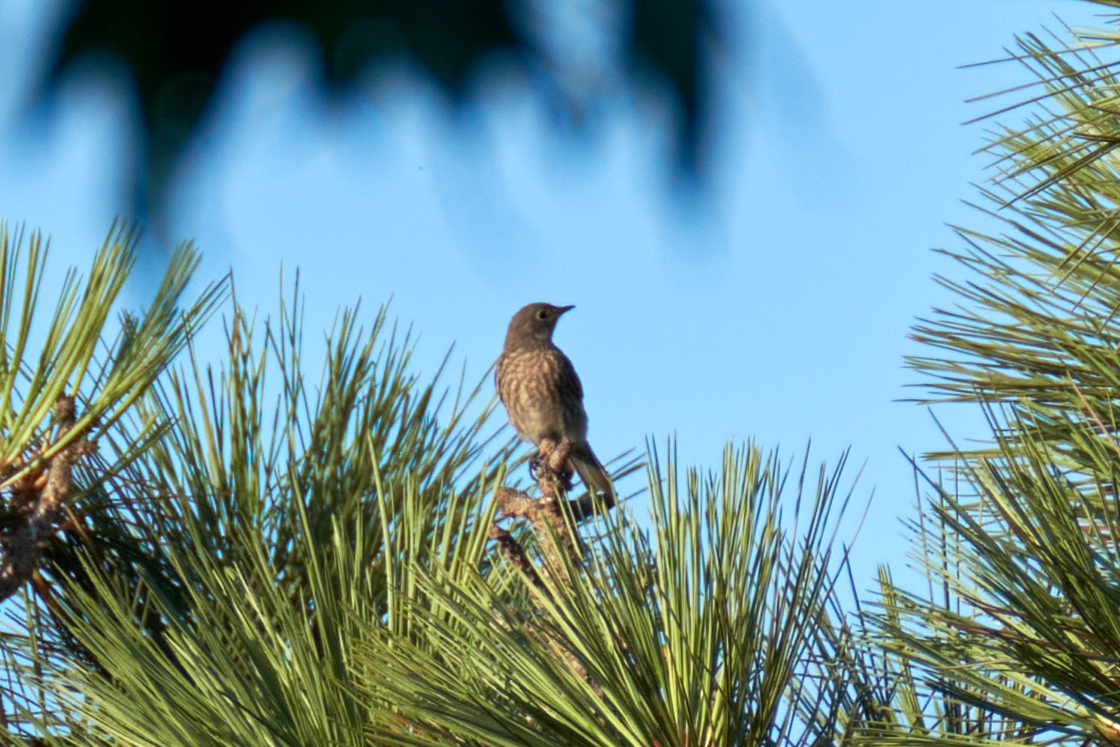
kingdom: Animalia
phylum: Chordata
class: Aves
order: Passeriformes
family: Turdidae
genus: Sialia
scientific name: Sialia mexicana
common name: Western bluebird
